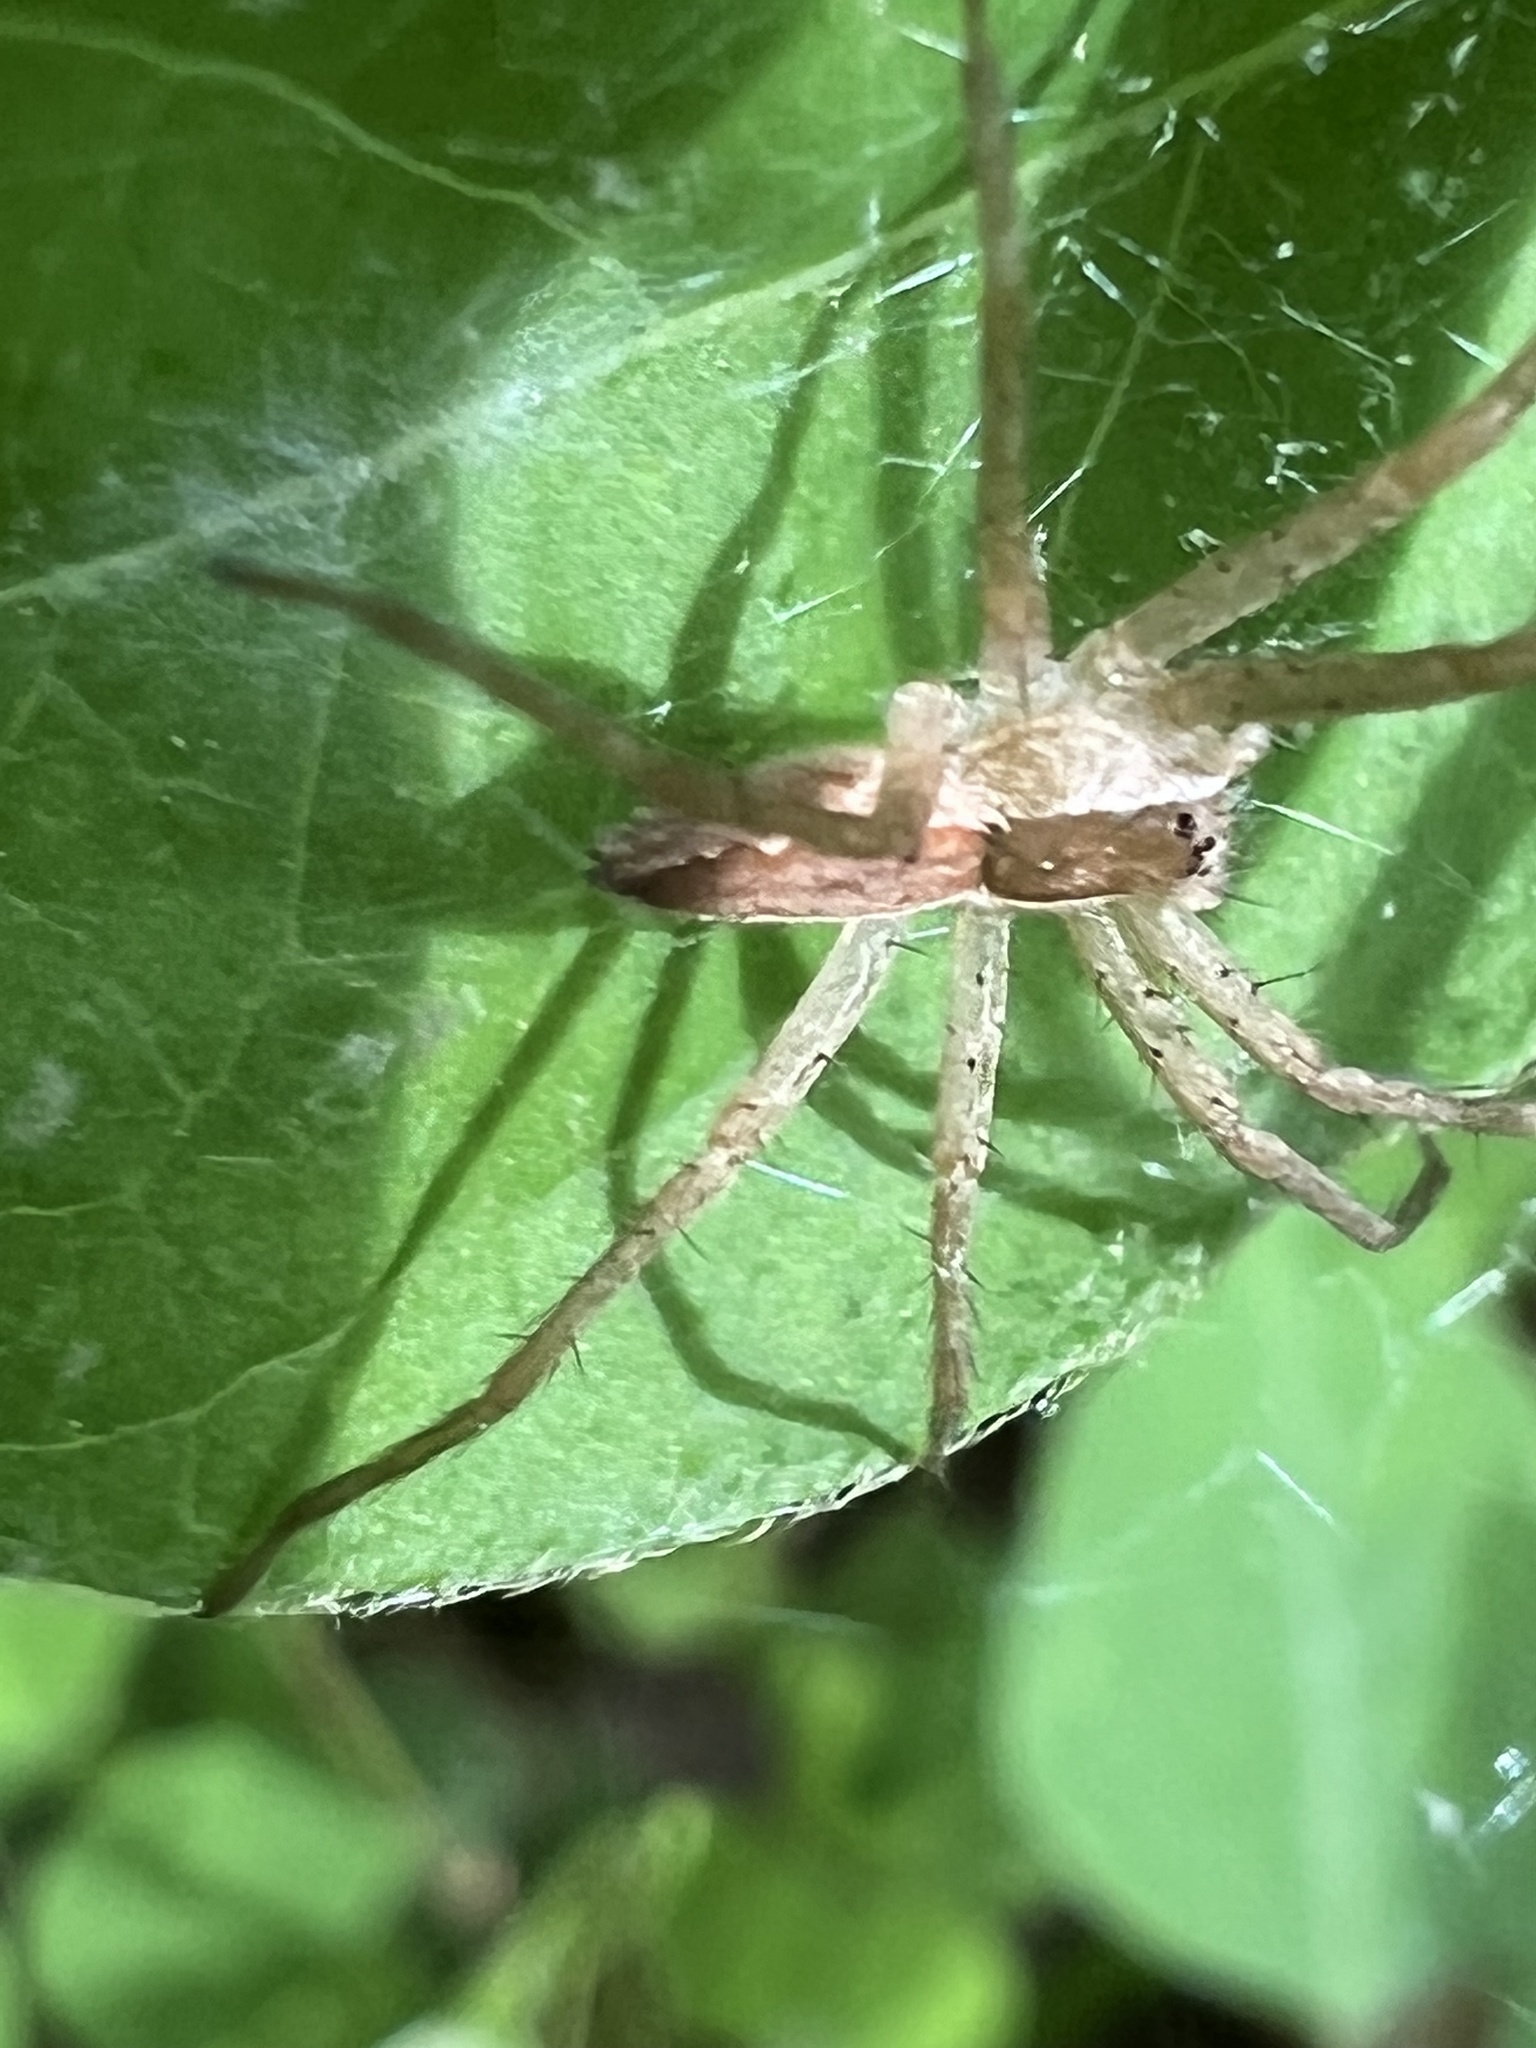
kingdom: Animalia
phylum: Arthropoda
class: Arachnida
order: Araneae
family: Pisauridae
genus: Pisaurina
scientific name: Pisaurina mira
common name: American nursery web spider
